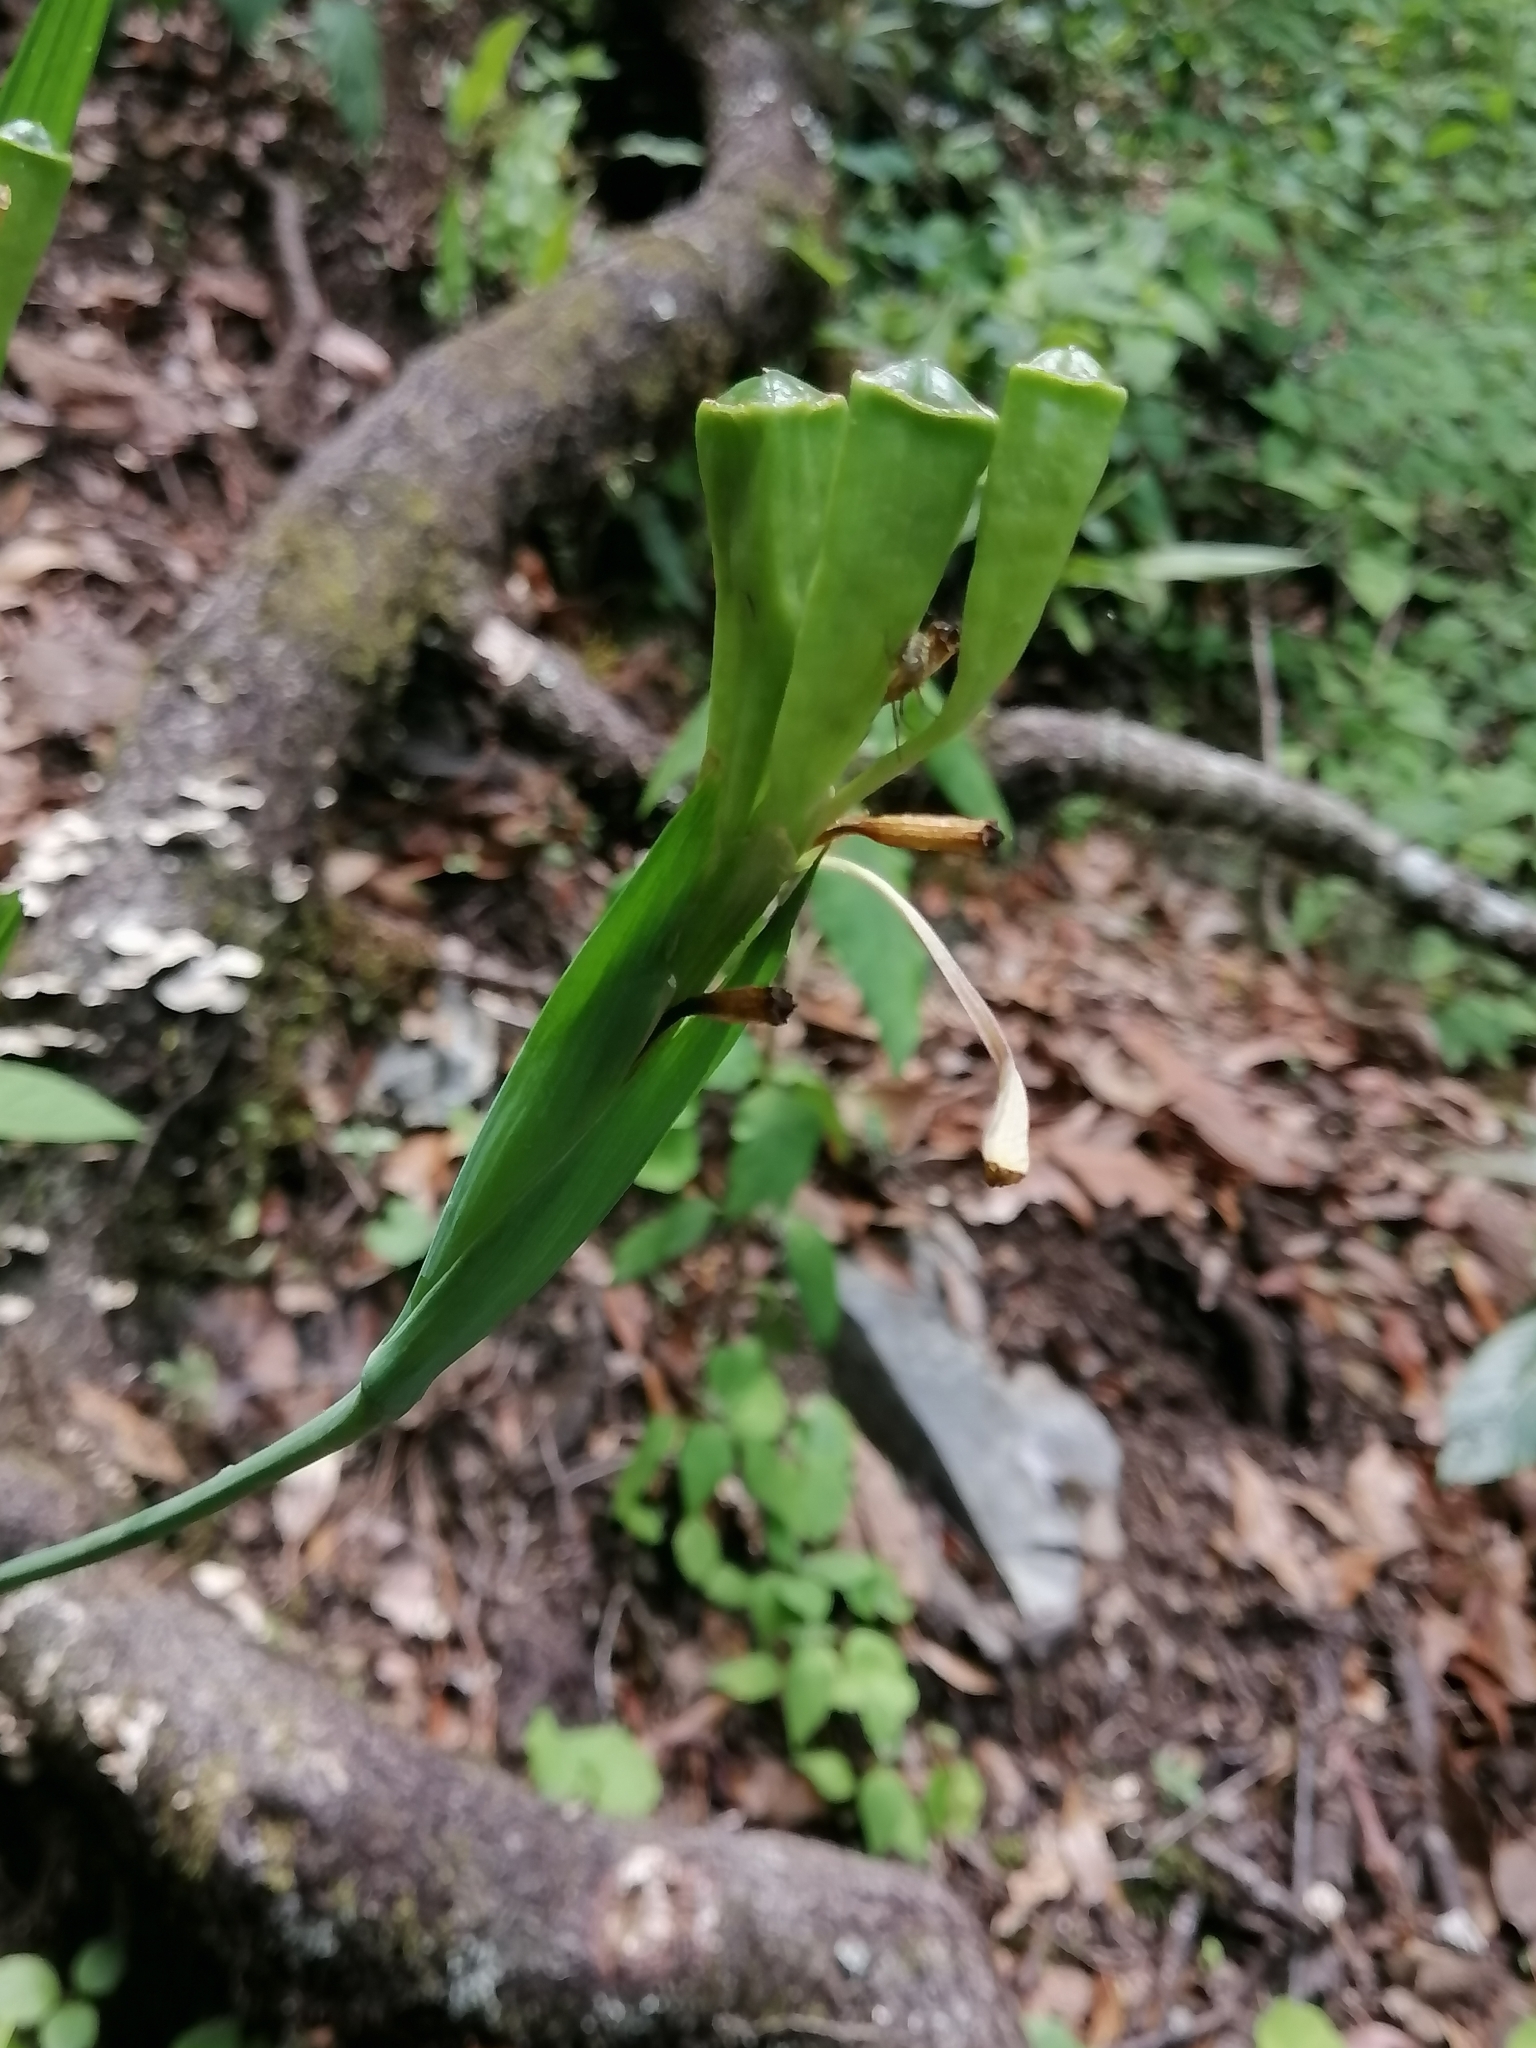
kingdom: Plantae
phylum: Tracheophyta
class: Liliopsida
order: Asparagales
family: Iridaceae
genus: Tigridia
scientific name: Tigridia pavonia
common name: Peacock-flower
